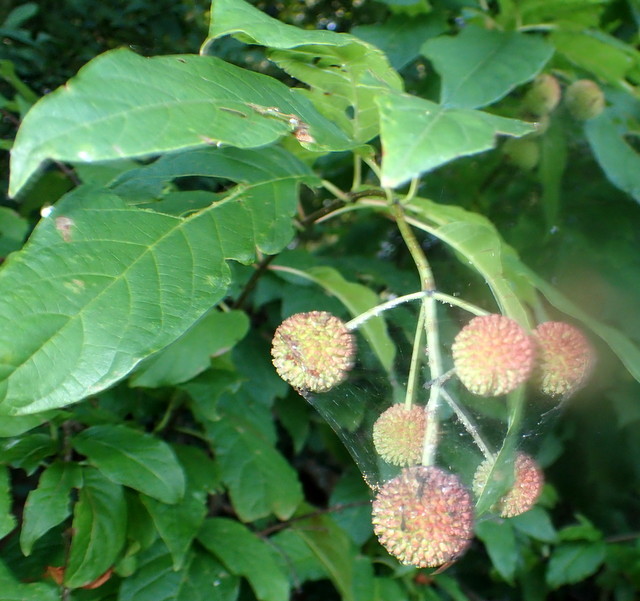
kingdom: Plantae
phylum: Tracheophyta
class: Magnoliopsida
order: Gentianales
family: Rubiaceae
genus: Cephalanthus
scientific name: Cephalanthus occidentalis
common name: Button-willow
